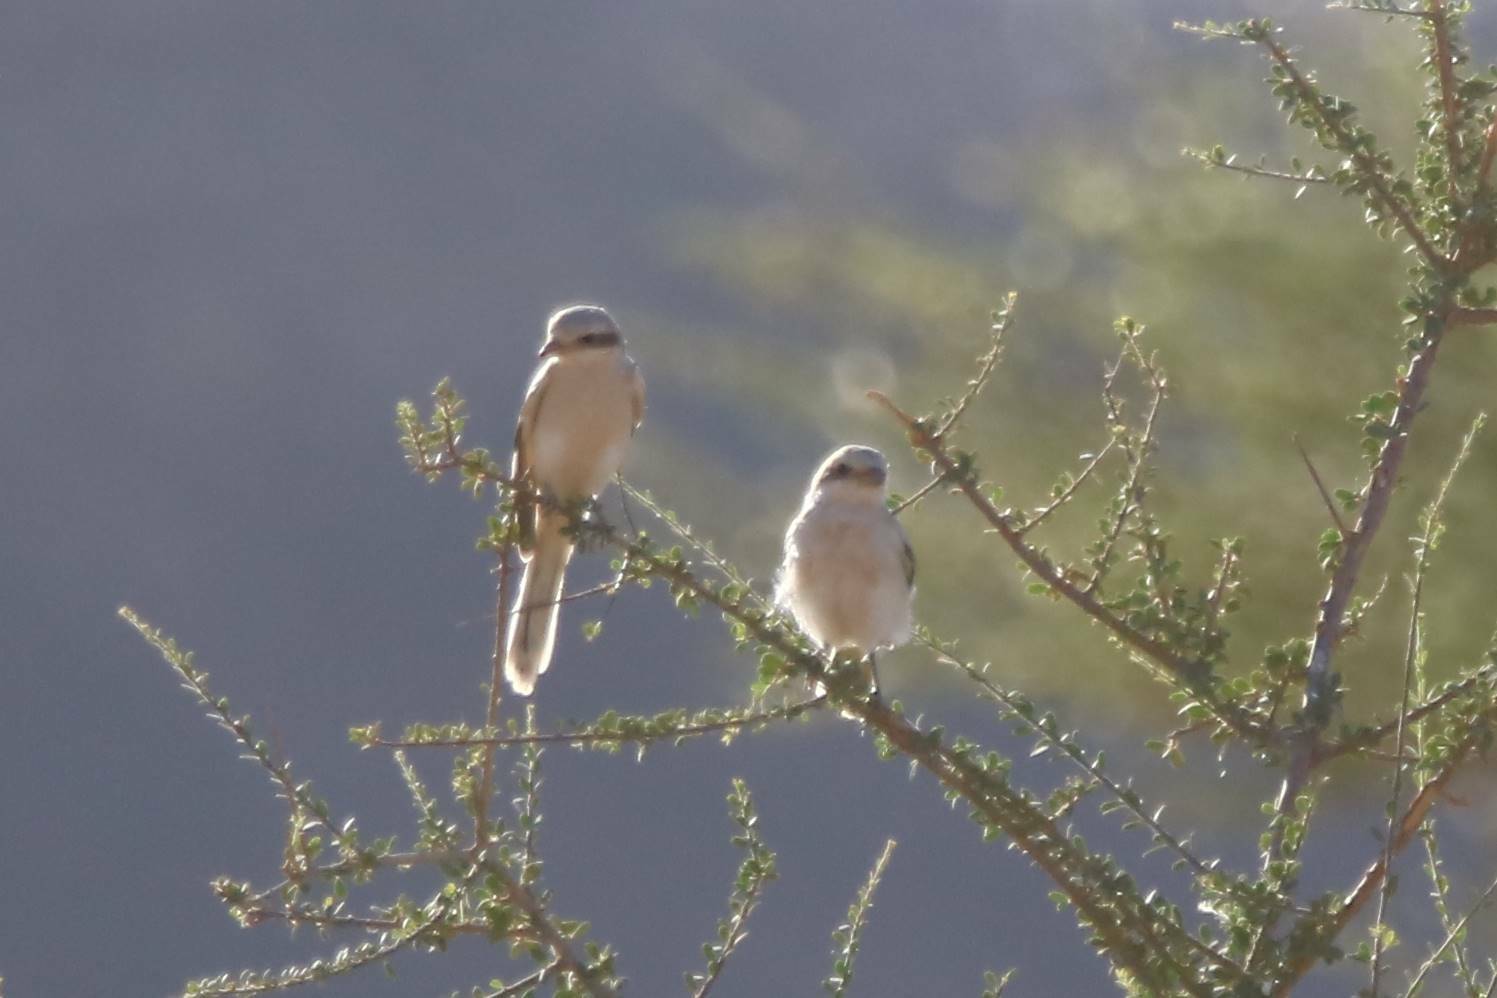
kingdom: Animalia
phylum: Chordata
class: Aves
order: Passeriformes
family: Laniidae
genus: Lanius
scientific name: Lanius excubitor
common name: Great grey shrike
